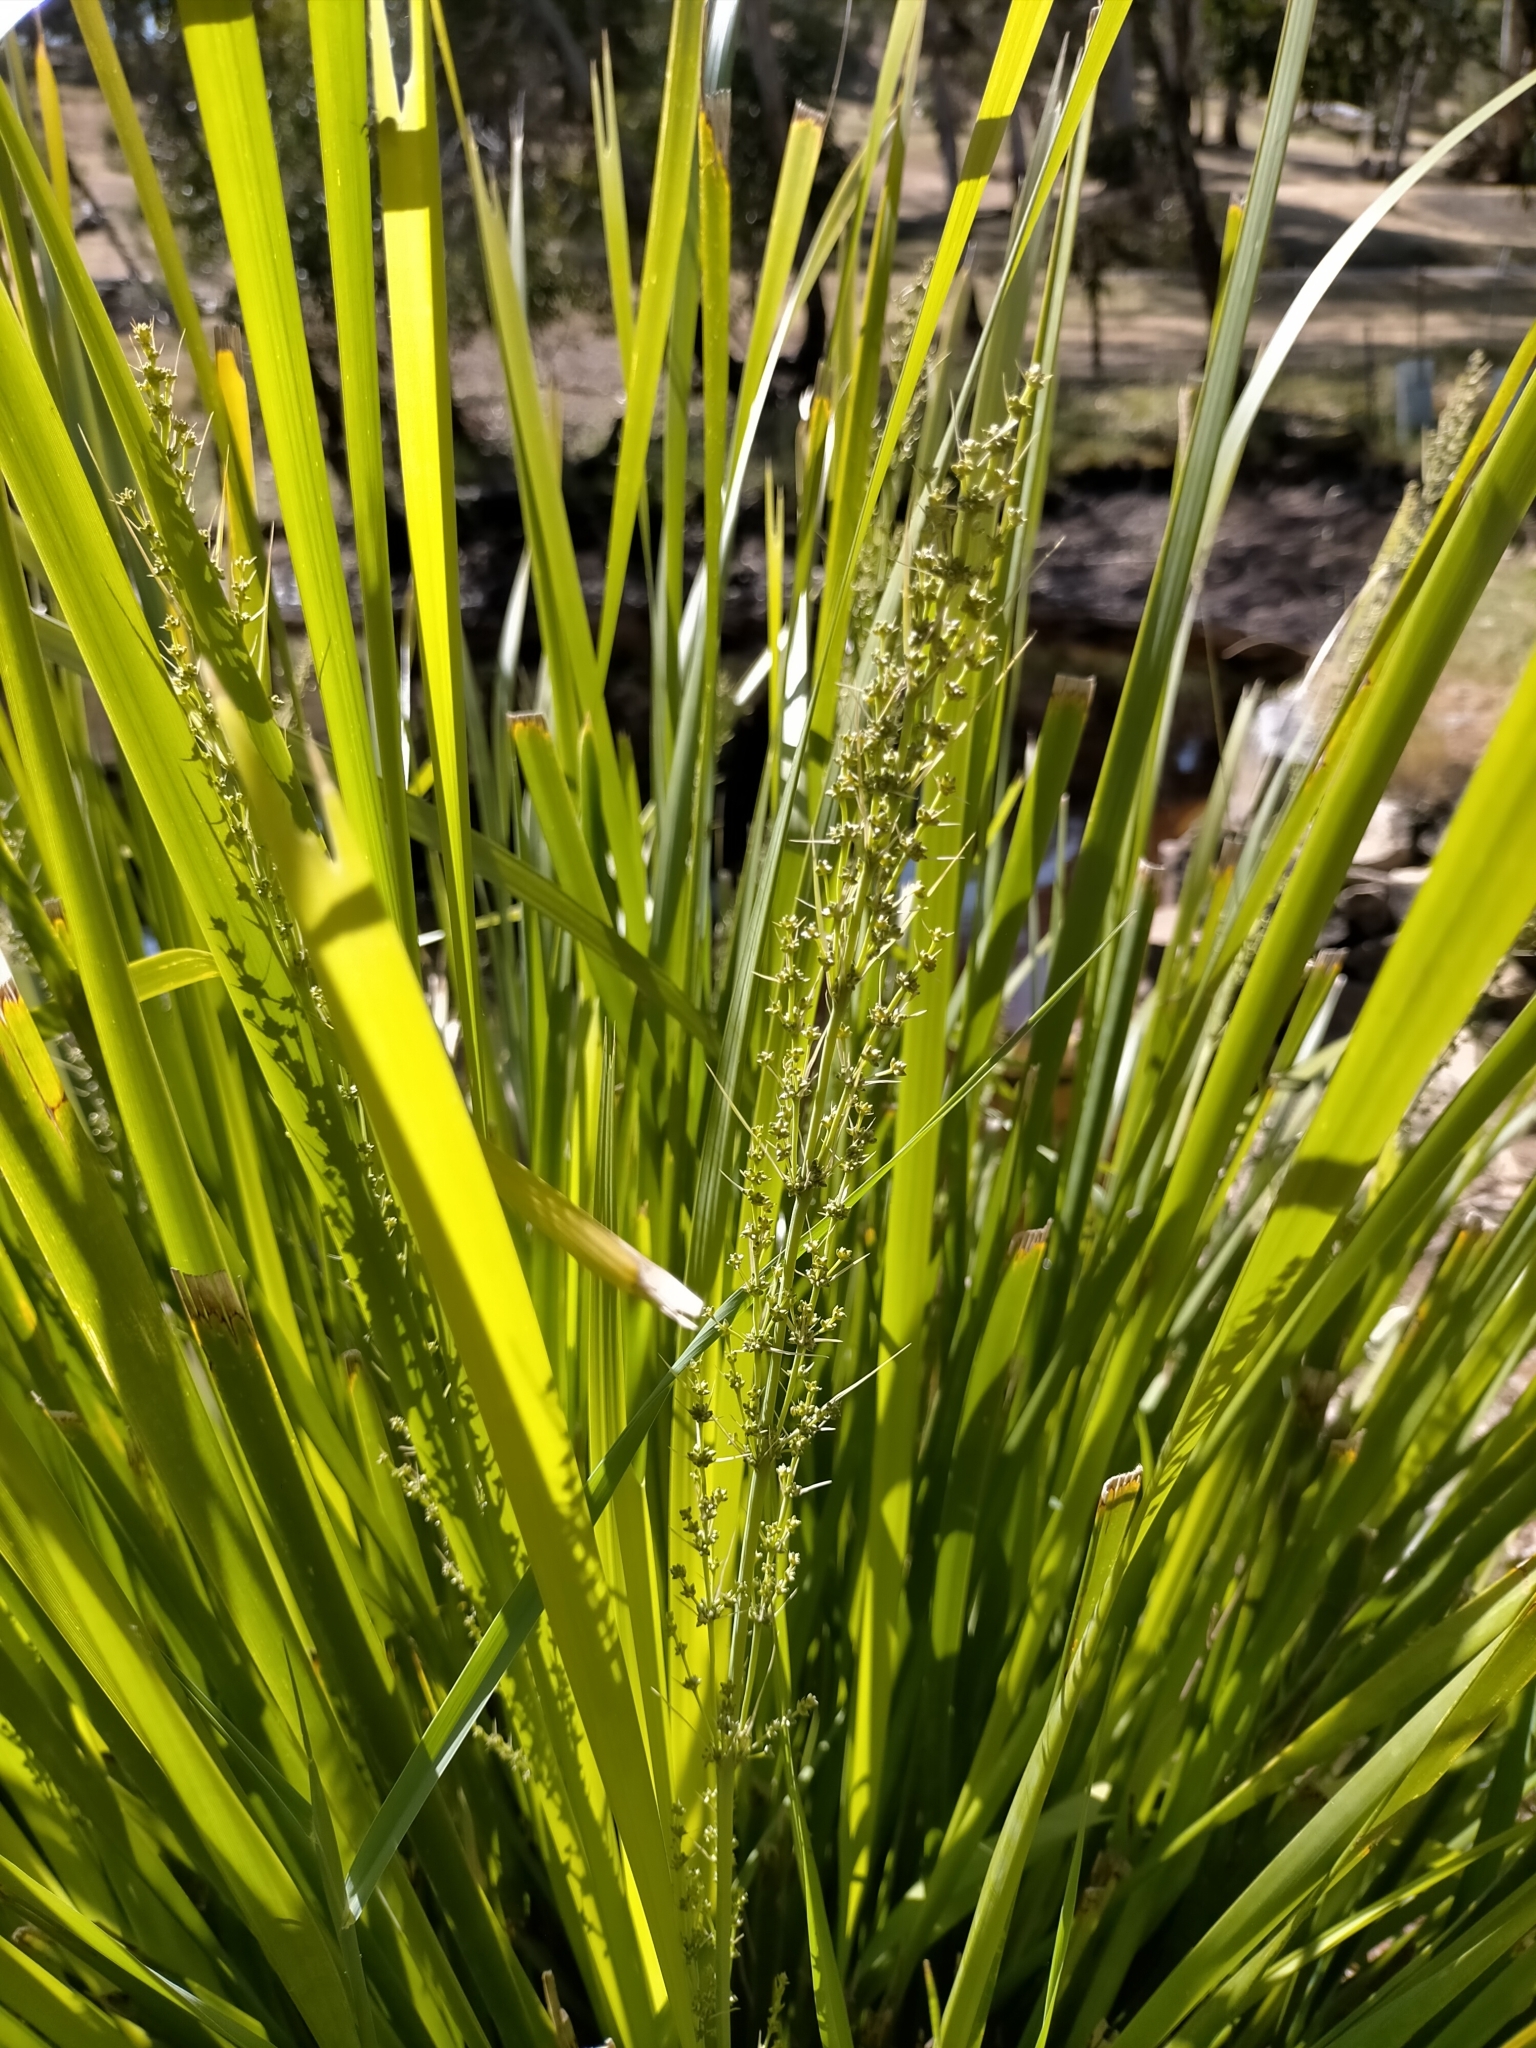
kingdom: Plantae
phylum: Tracheophyta
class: Liliopsida
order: Asparagales
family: Asparagaceae
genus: Lomandra
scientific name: Lomandra longifolia
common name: Longleaf mat-rush
